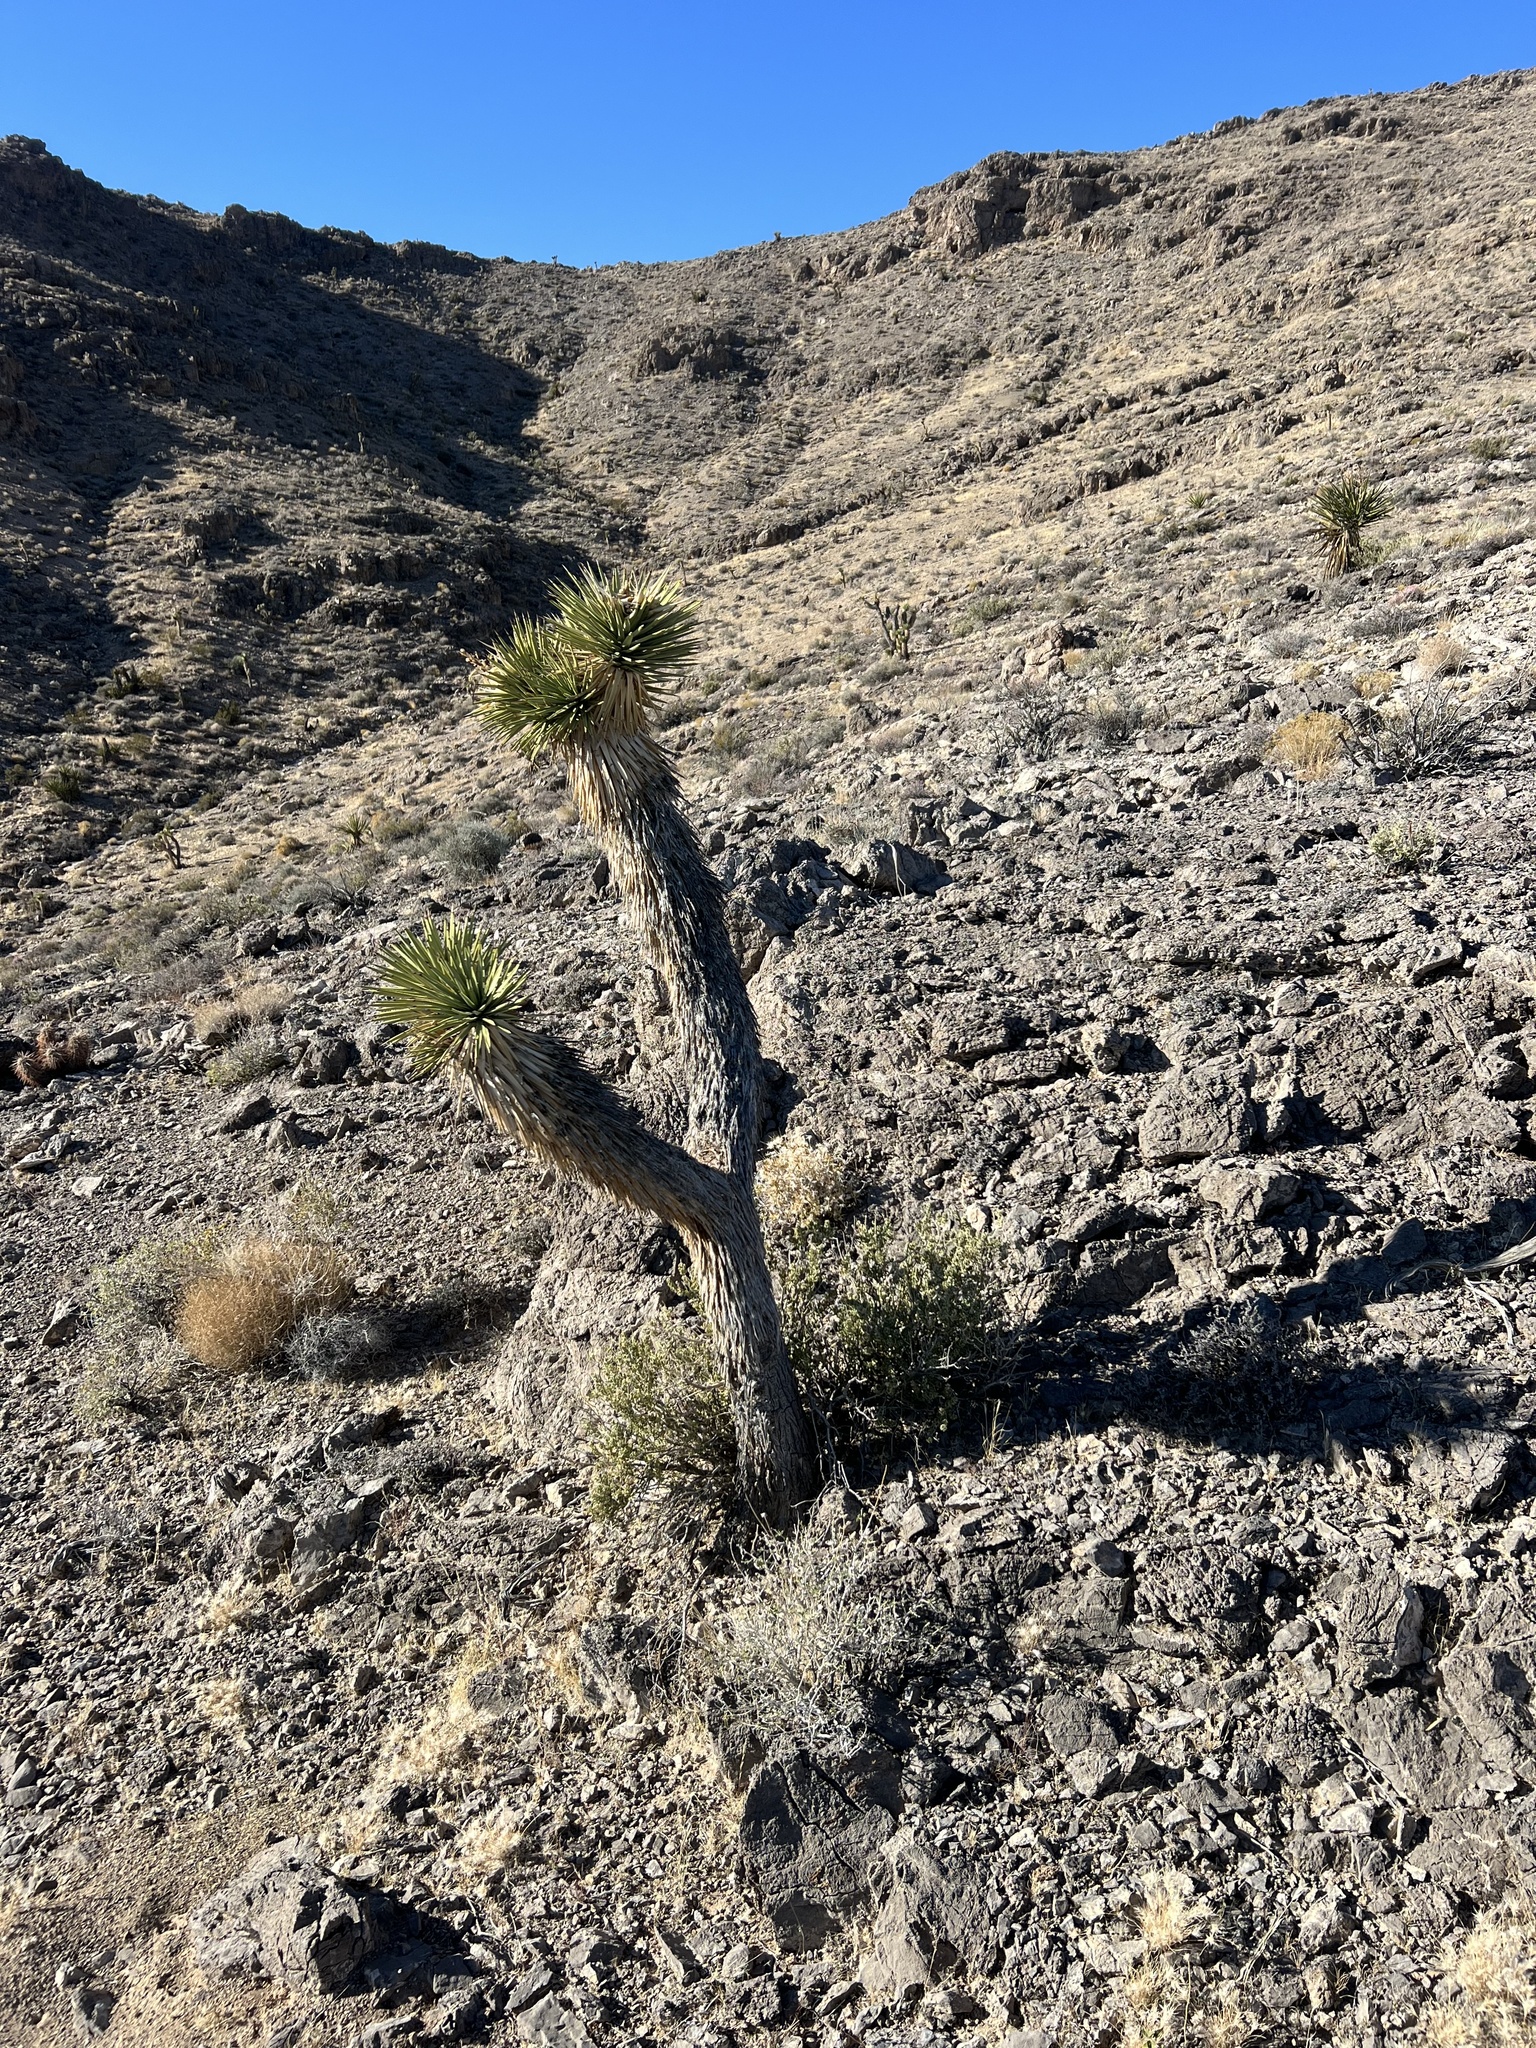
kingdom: Plantae
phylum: Tracheophyta
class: Liliopsida
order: Asparagales
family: Asparagaceae
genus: Yucca
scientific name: Yucca brevifolia
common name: Joshua tree
